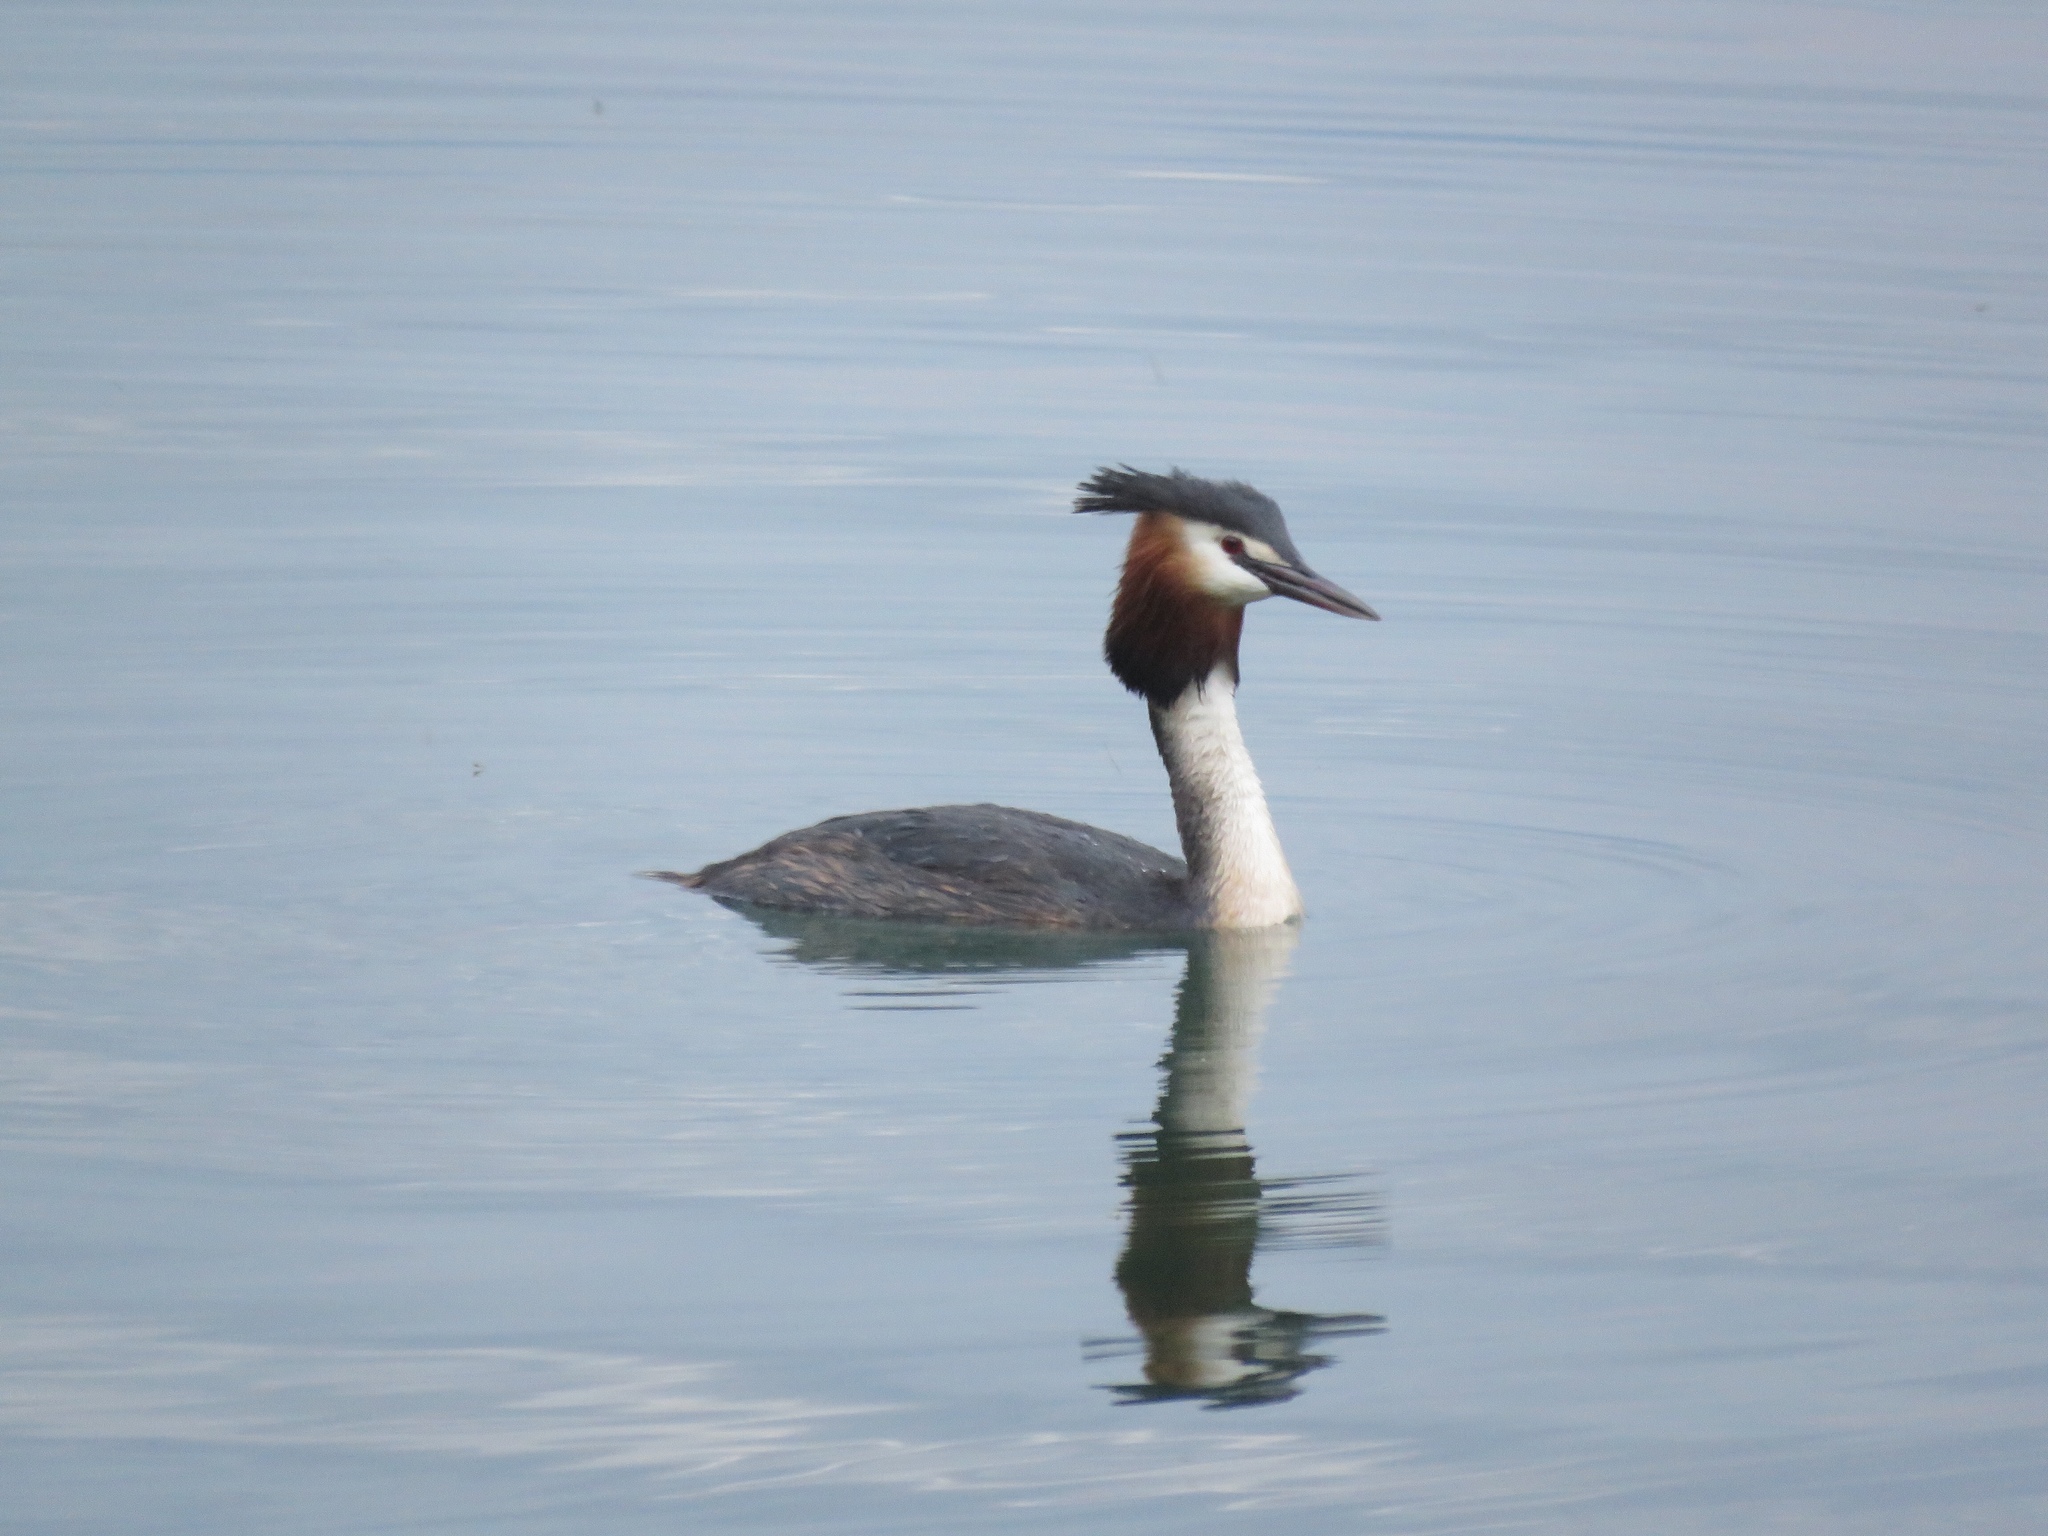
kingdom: Animalia
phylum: Chordata
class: Aves
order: Podicipediformes
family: Podicipedidae
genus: Podiceps
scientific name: Podiceps cristatus
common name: Great crested grebe
